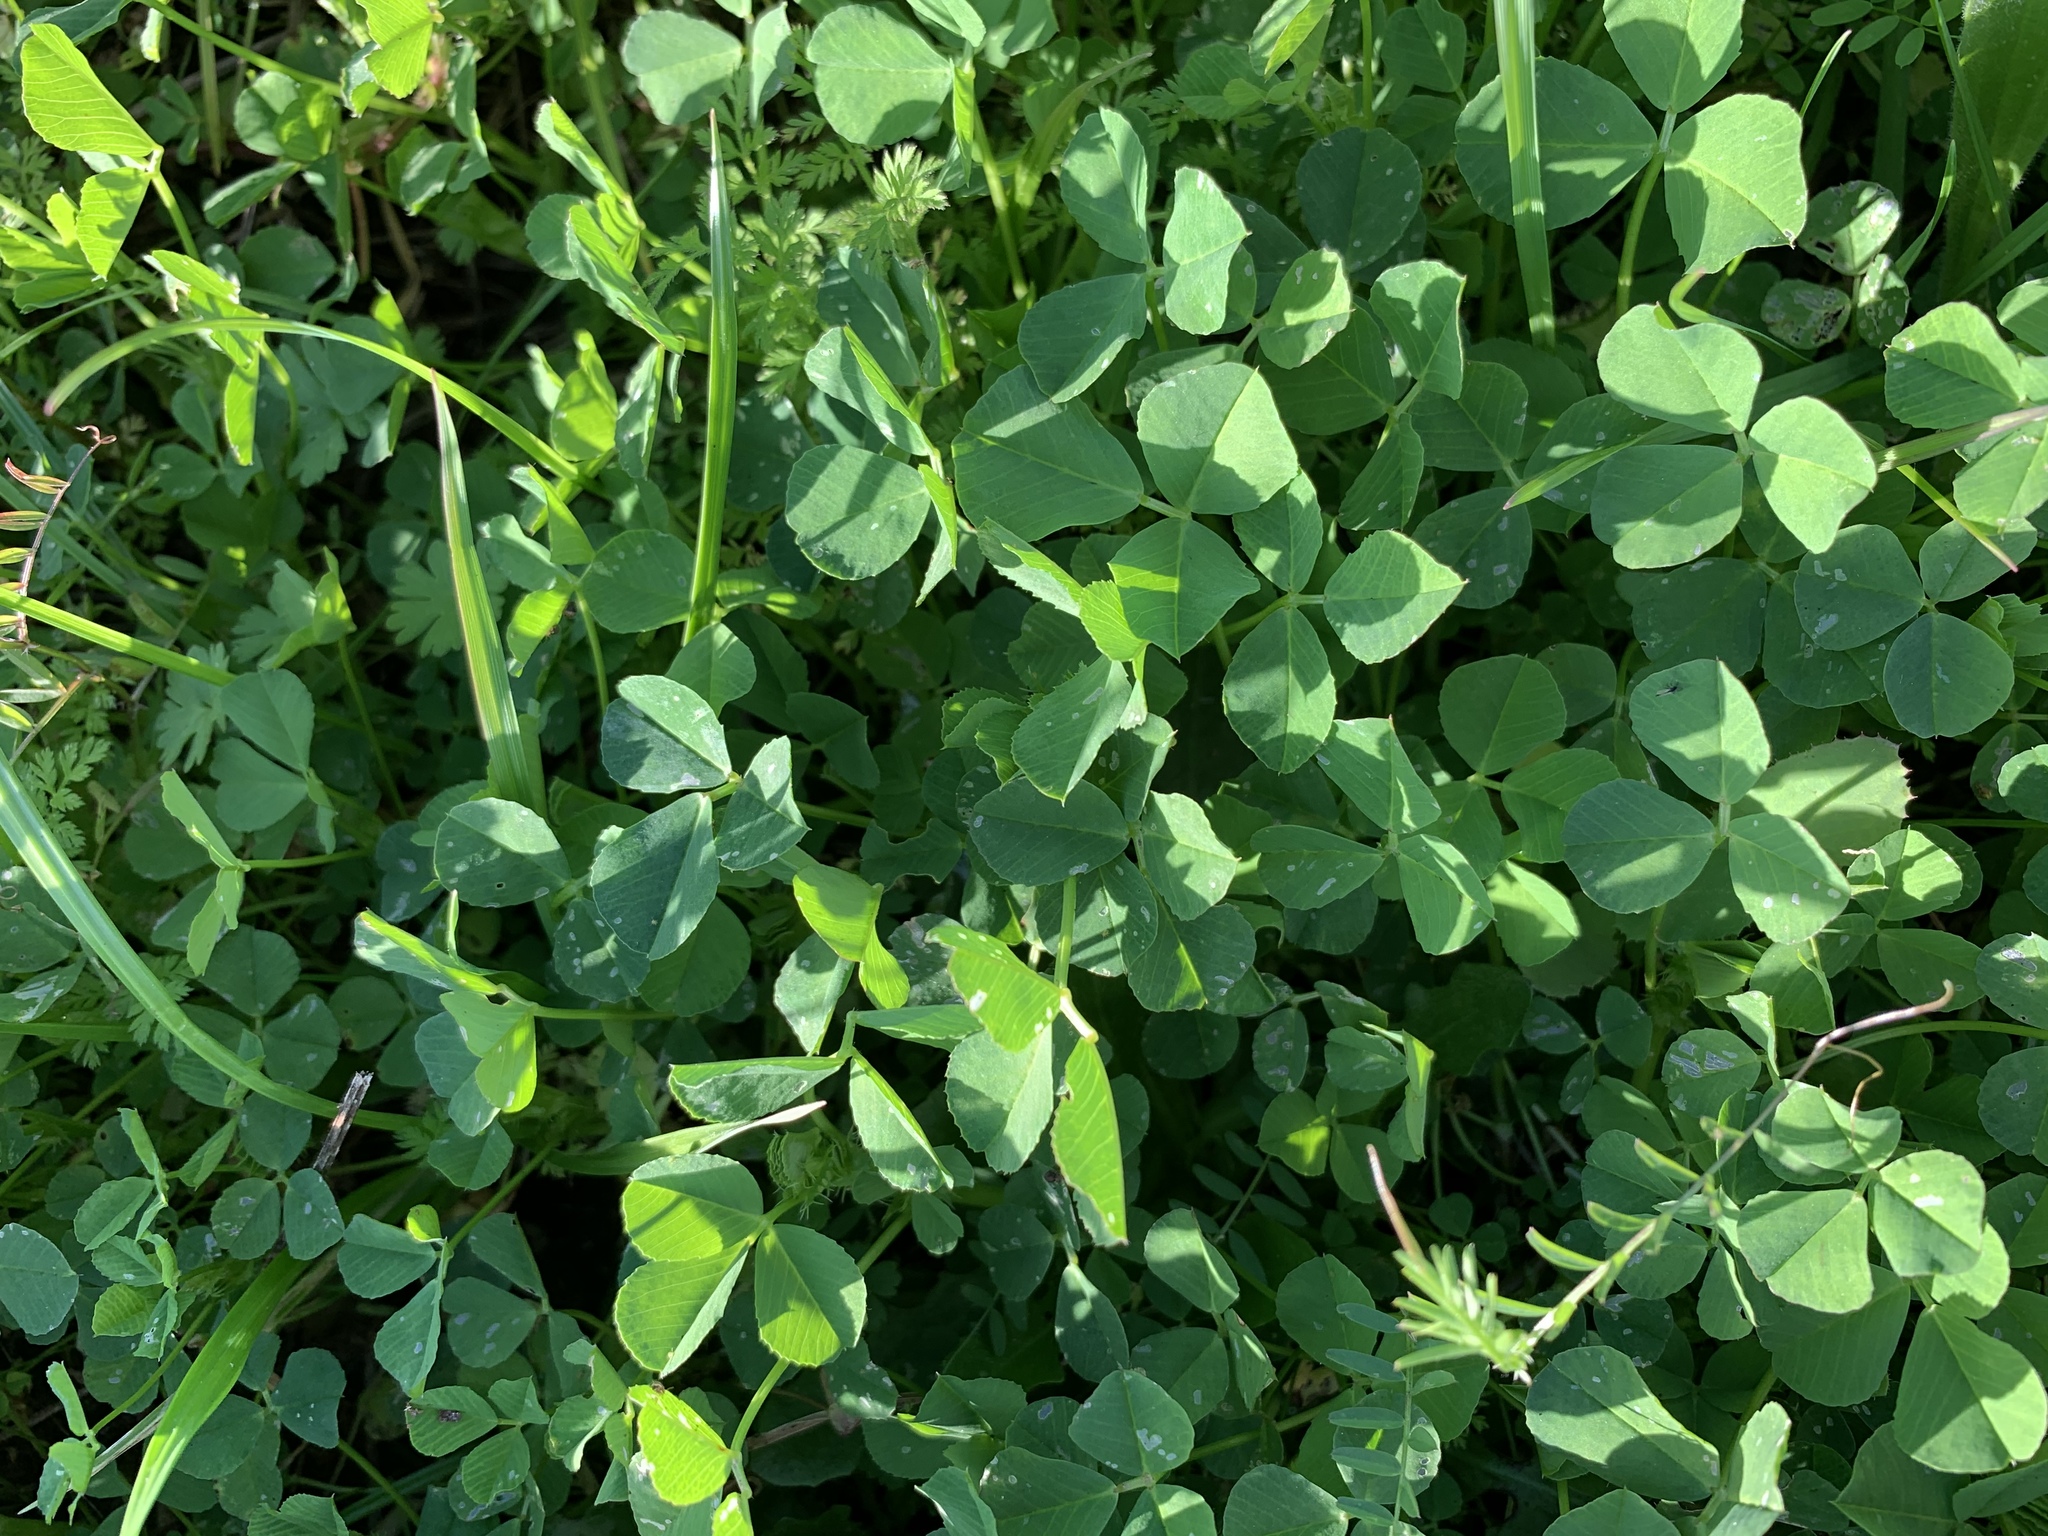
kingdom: Plantae
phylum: Tracheophyta
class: Magnoliopsida
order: Fabales
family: Fabaceae
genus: Medicago
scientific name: Medicago polymorpha
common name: Burclover
